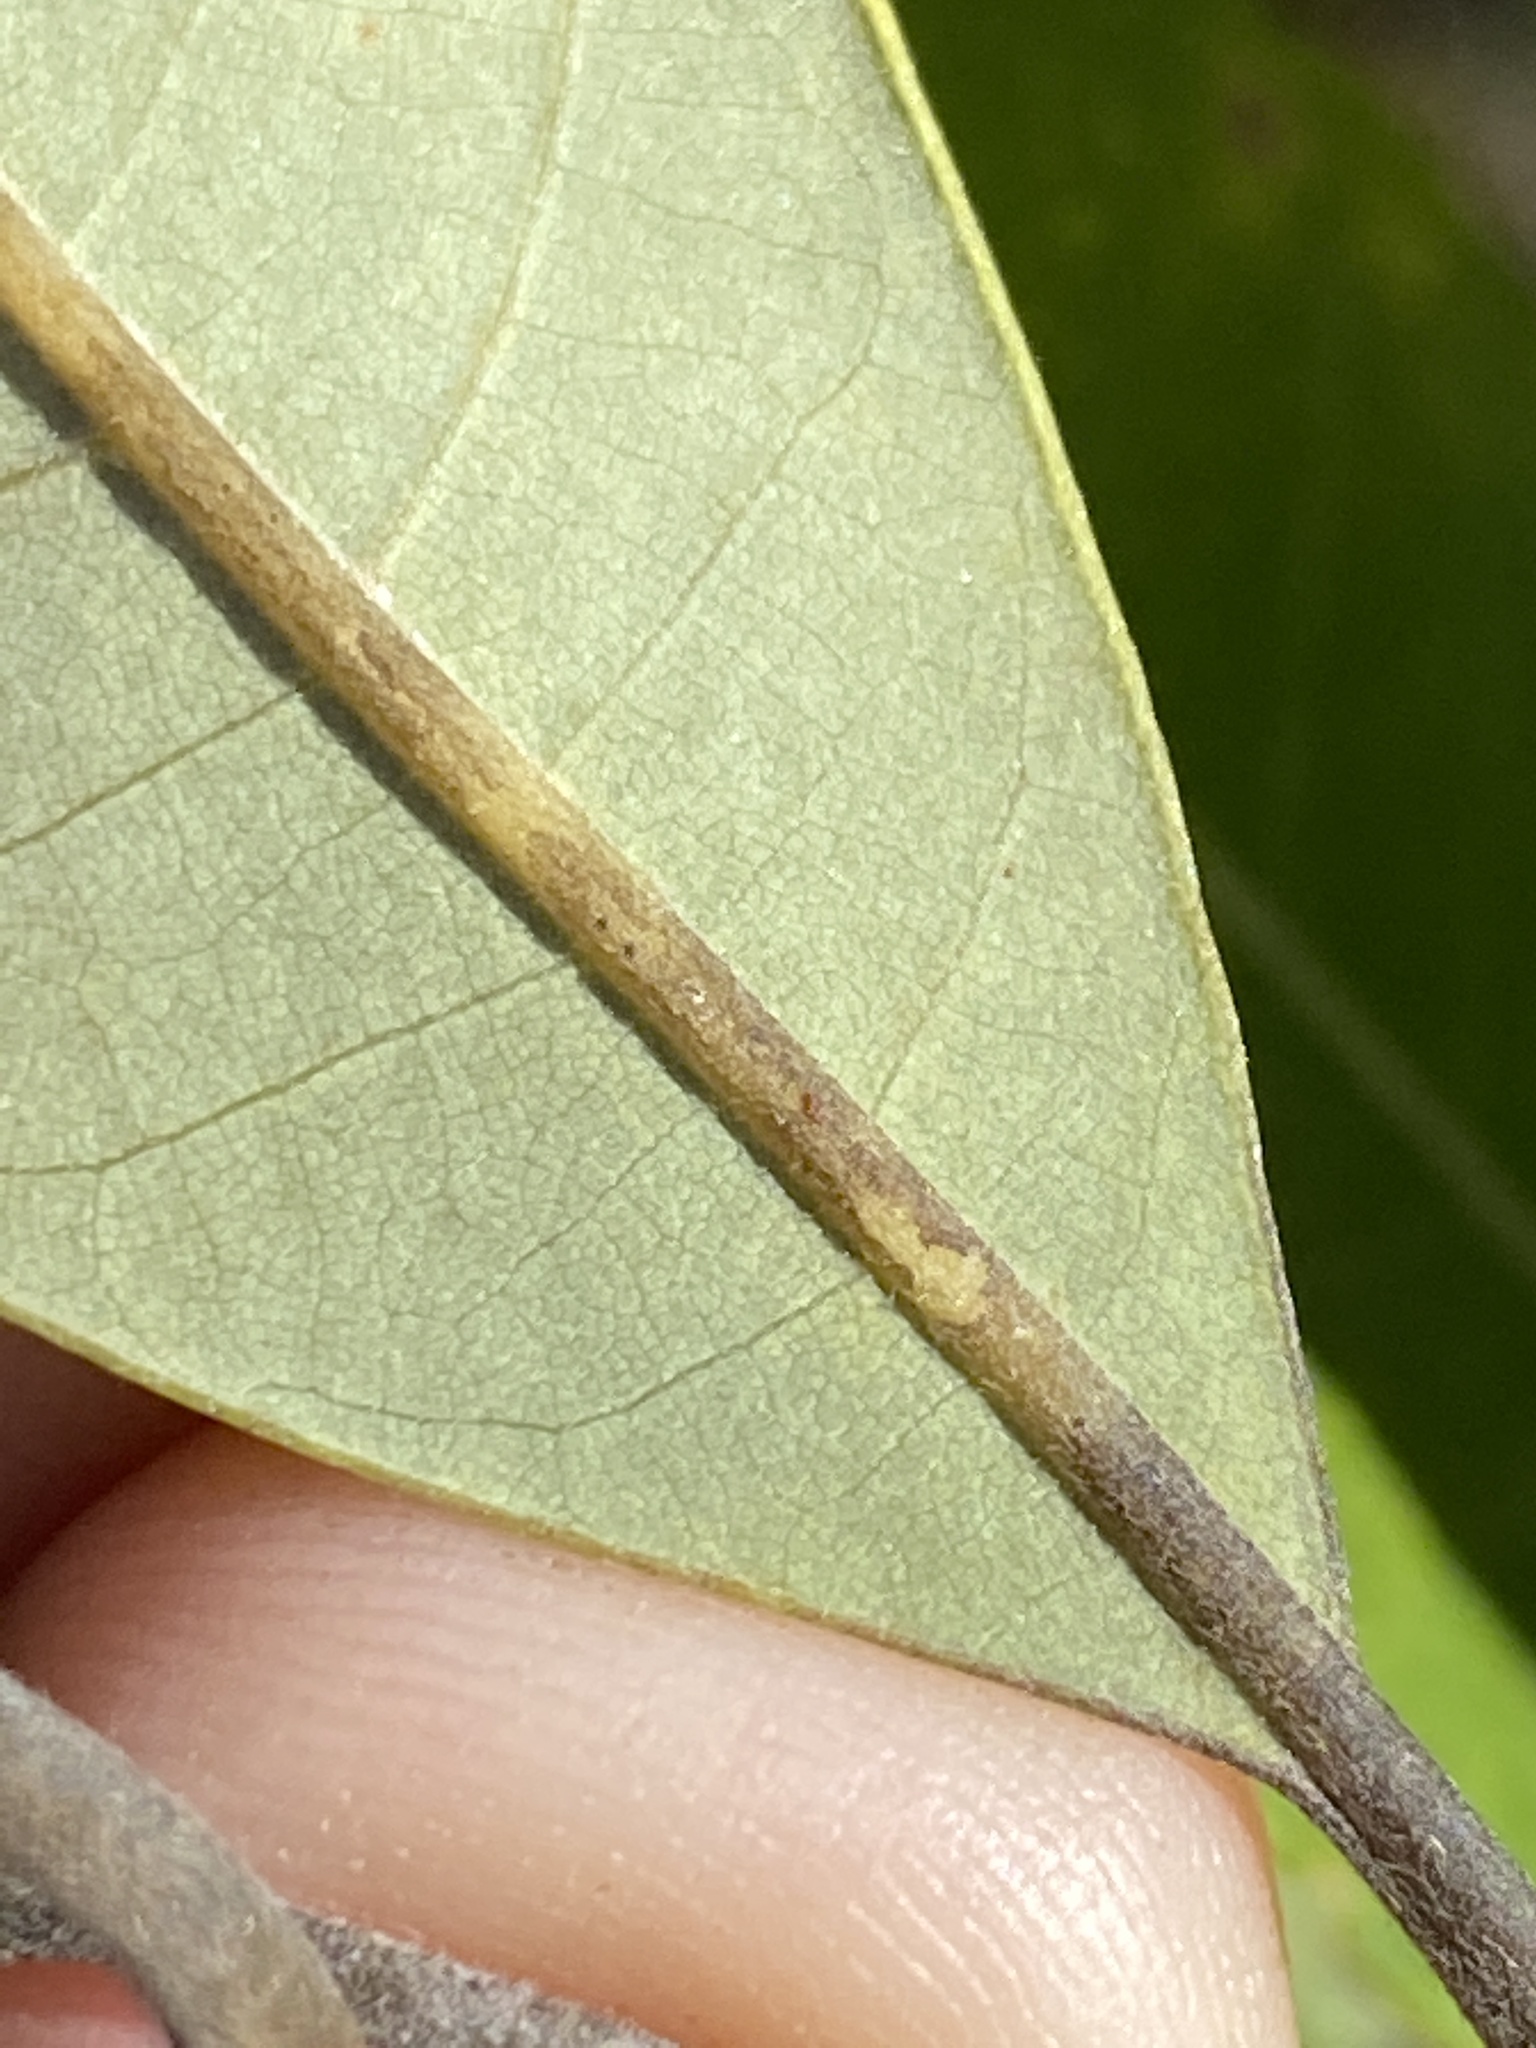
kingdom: Plantae
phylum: Tracheophyta
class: Magnoliopsida
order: Laurales
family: Lauraceae
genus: Persea
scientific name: Persea borbonia
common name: Redbay
